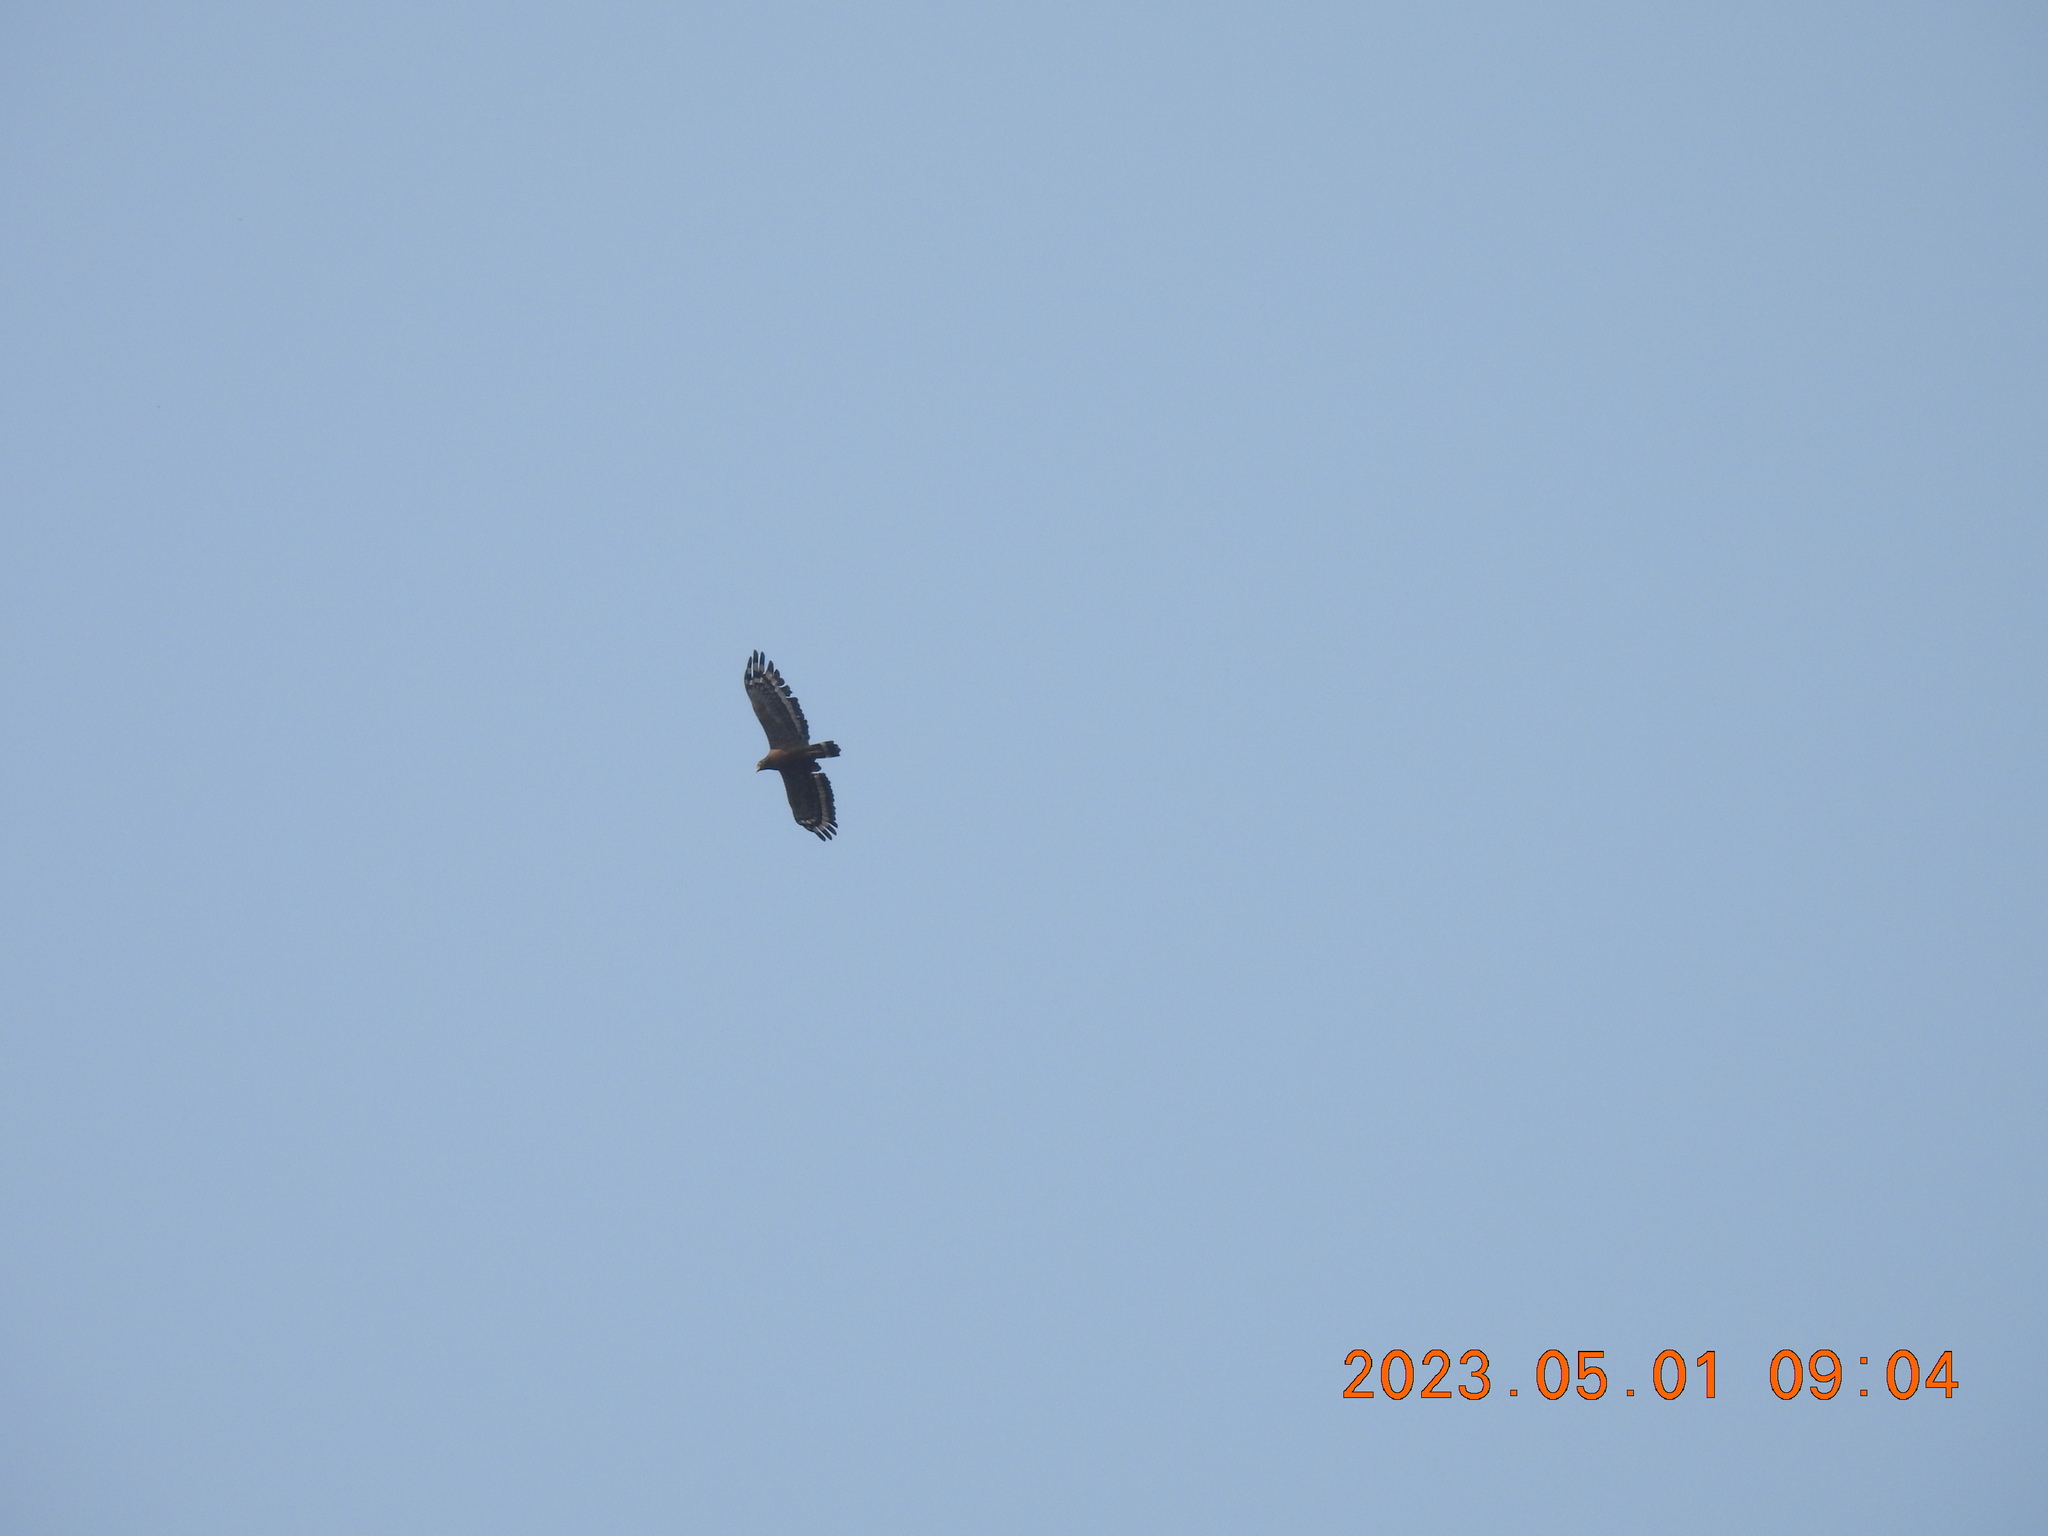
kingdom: Animalia
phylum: Chordata
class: Aves
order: Accipitriformes
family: Accipitridae
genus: Spilornis
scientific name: Spilornis cheela
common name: Crested serpent eagle
